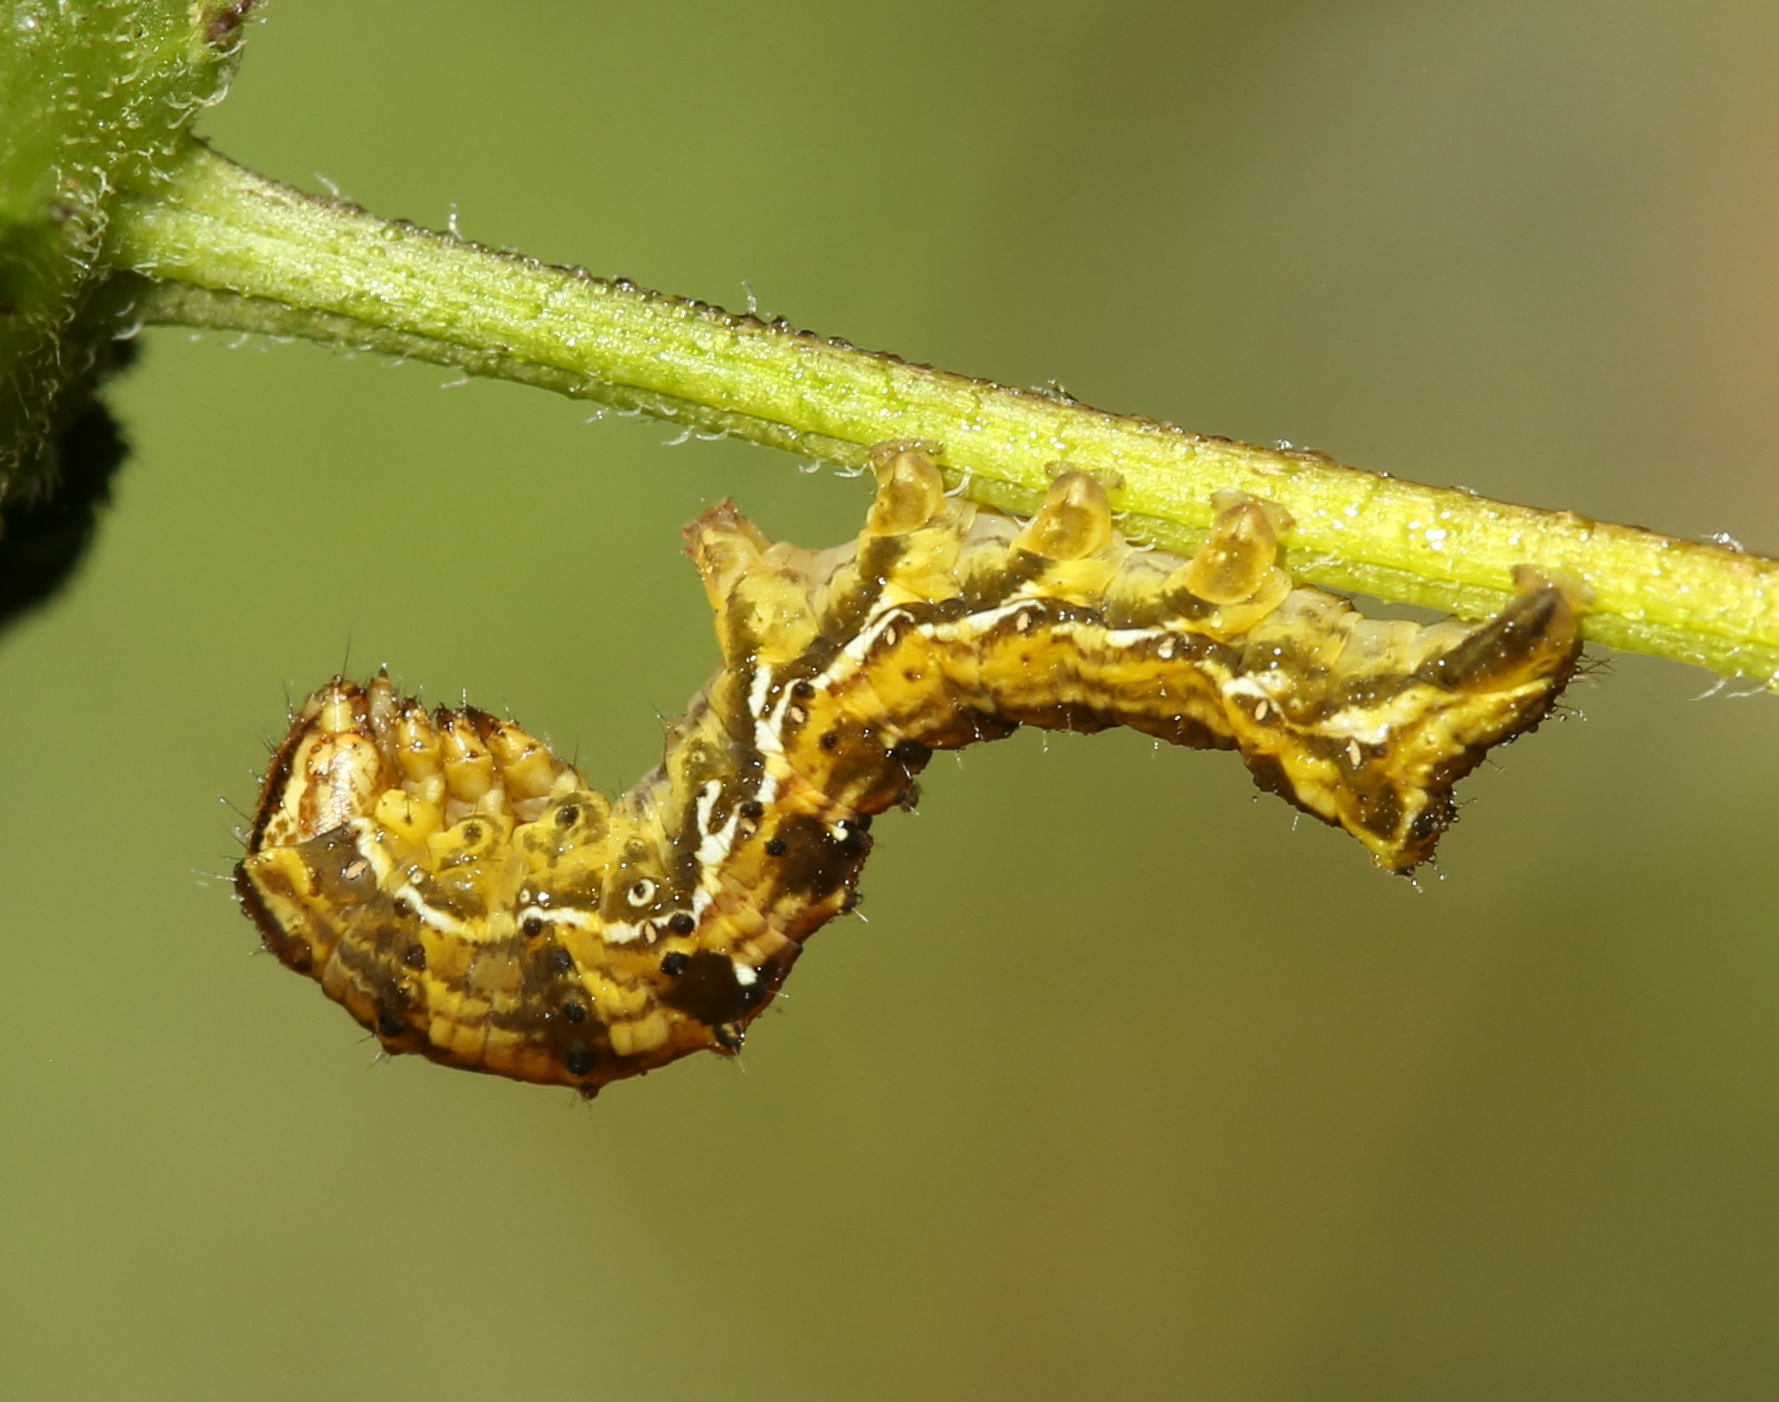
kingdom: Animalia
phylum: Arthropoda
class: Insecta
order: Lepidoptera
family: Noctuidae
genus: Cirrhophanus
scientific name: Cirrhophanus triangulifer
